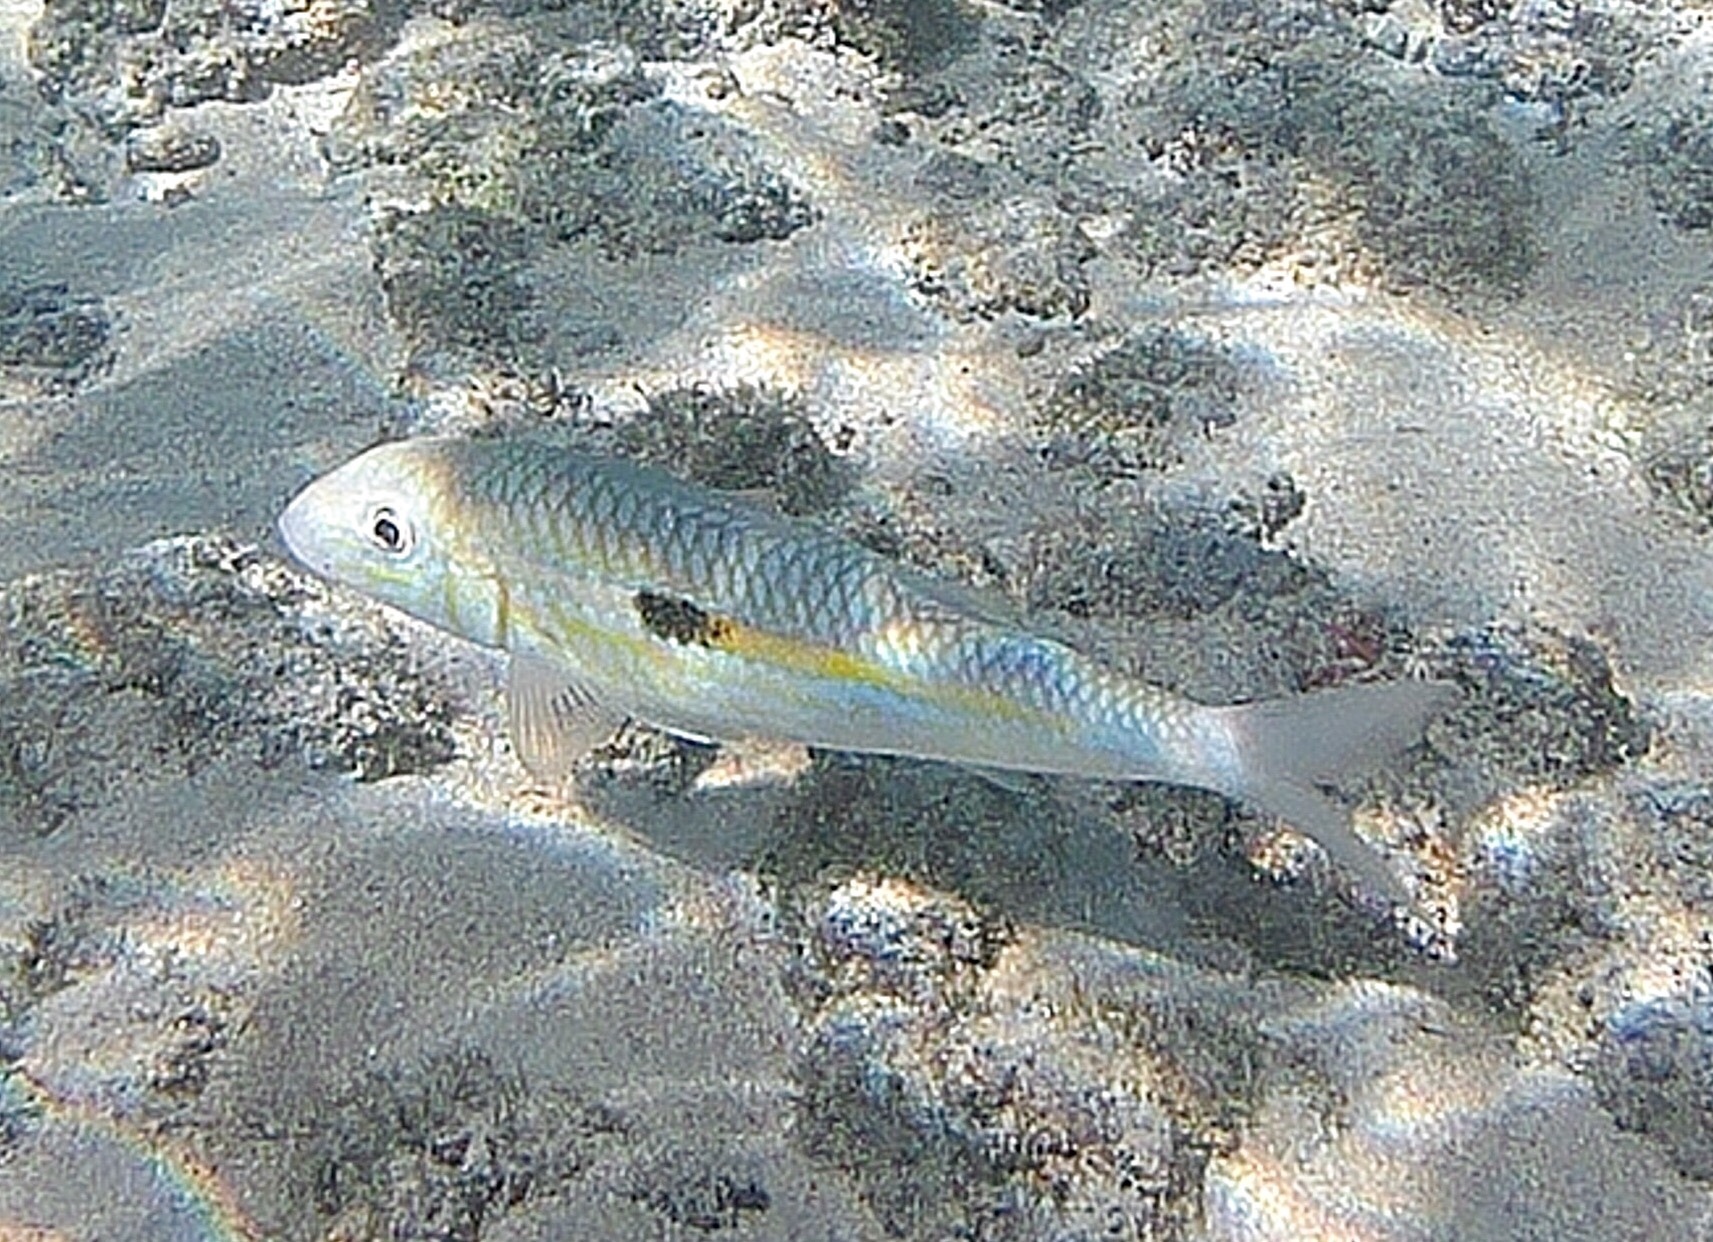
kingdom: Animalia
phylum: Chordata
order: Perciformes
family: Mullidae
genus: Mulloidichthys
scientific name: Mulloidichthys flavolineatus
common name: Yellowstripe goatfish
